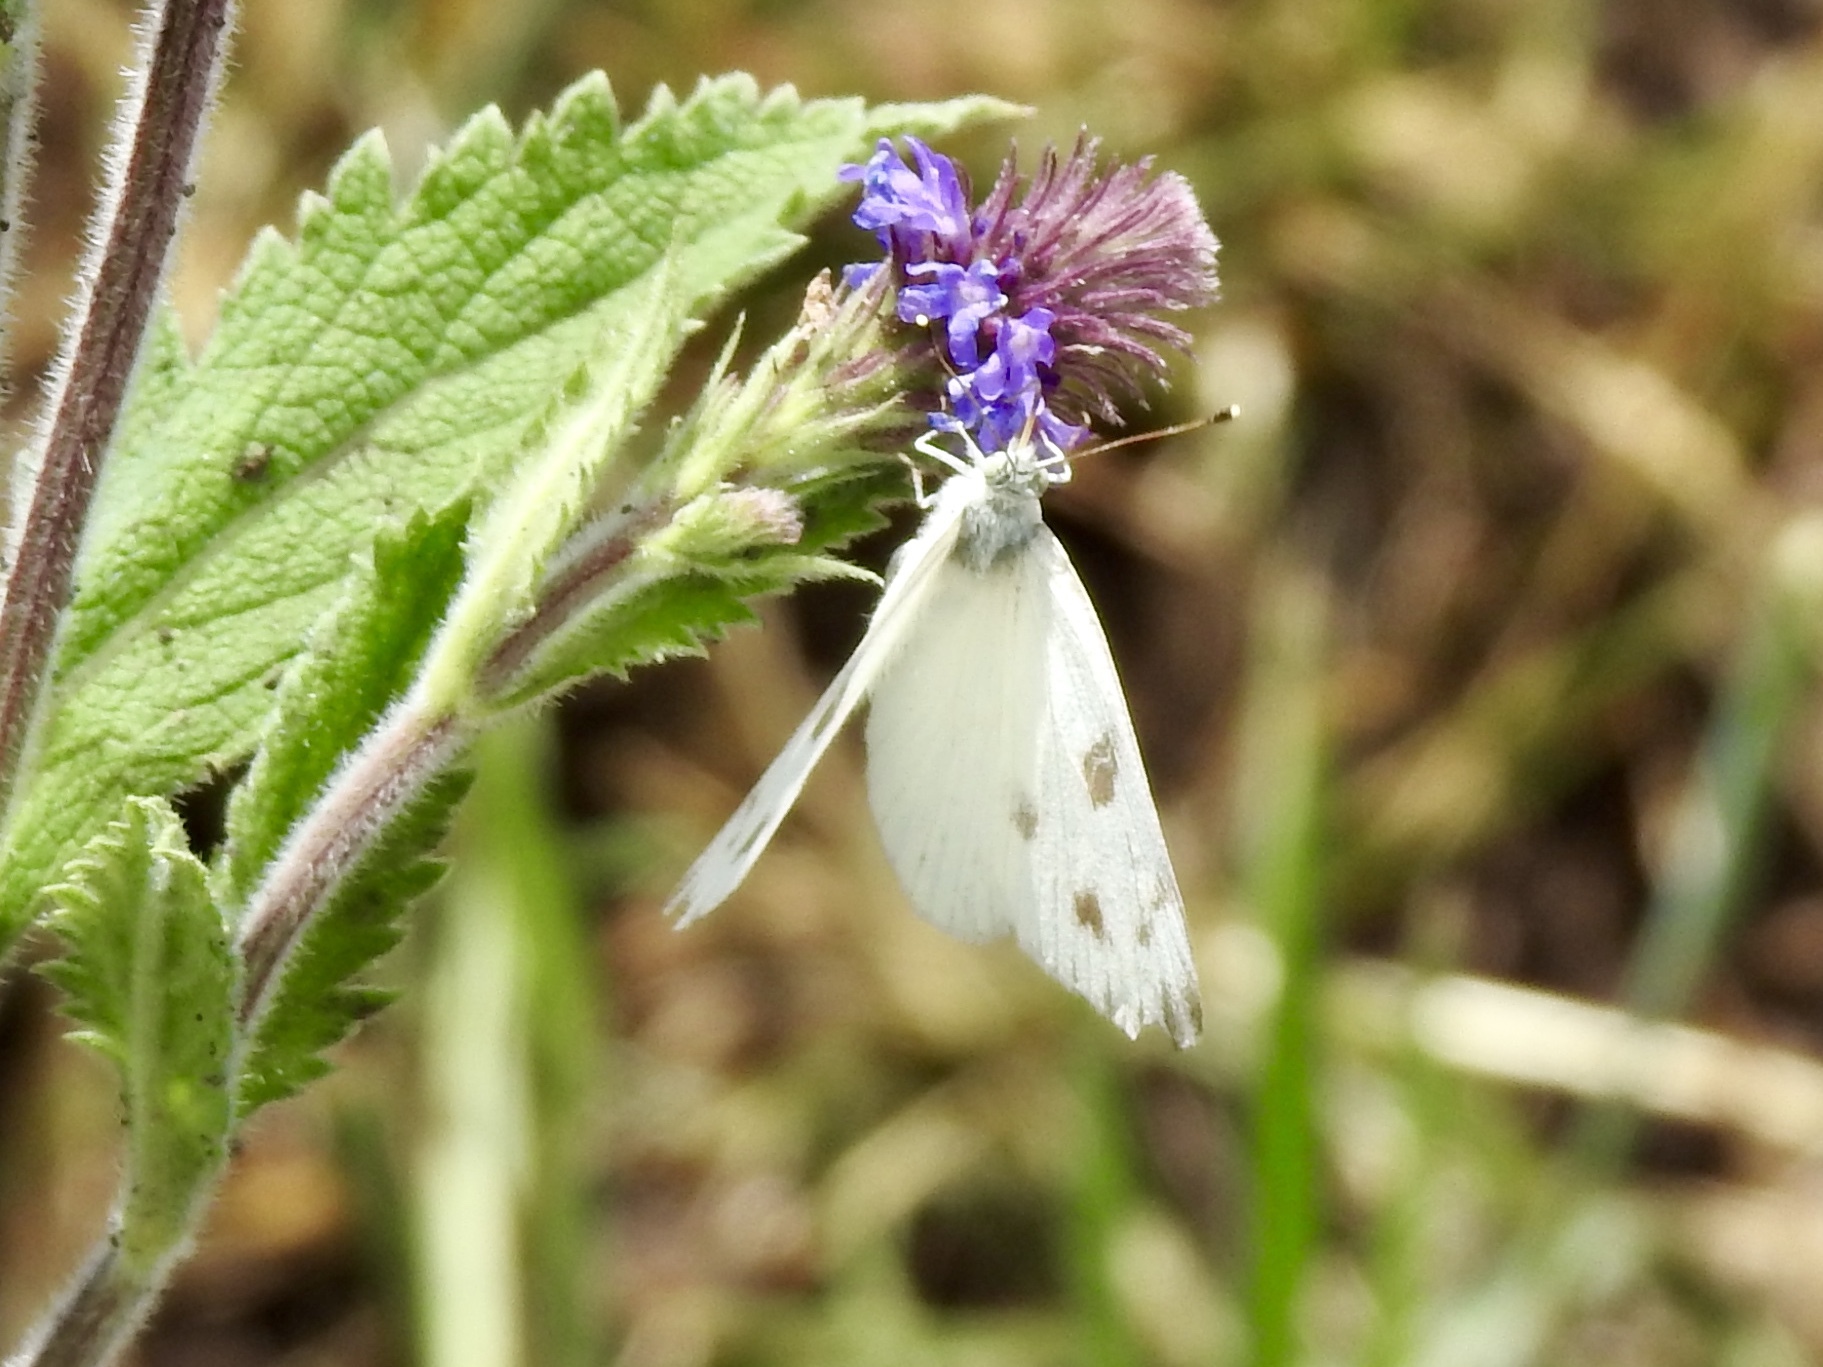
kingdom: Animalia
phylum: Arthropoda
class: Insecta
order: Lepidoptera
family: Pieridae
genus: Pontia
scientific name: Pontia protodice
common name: Checkered white
